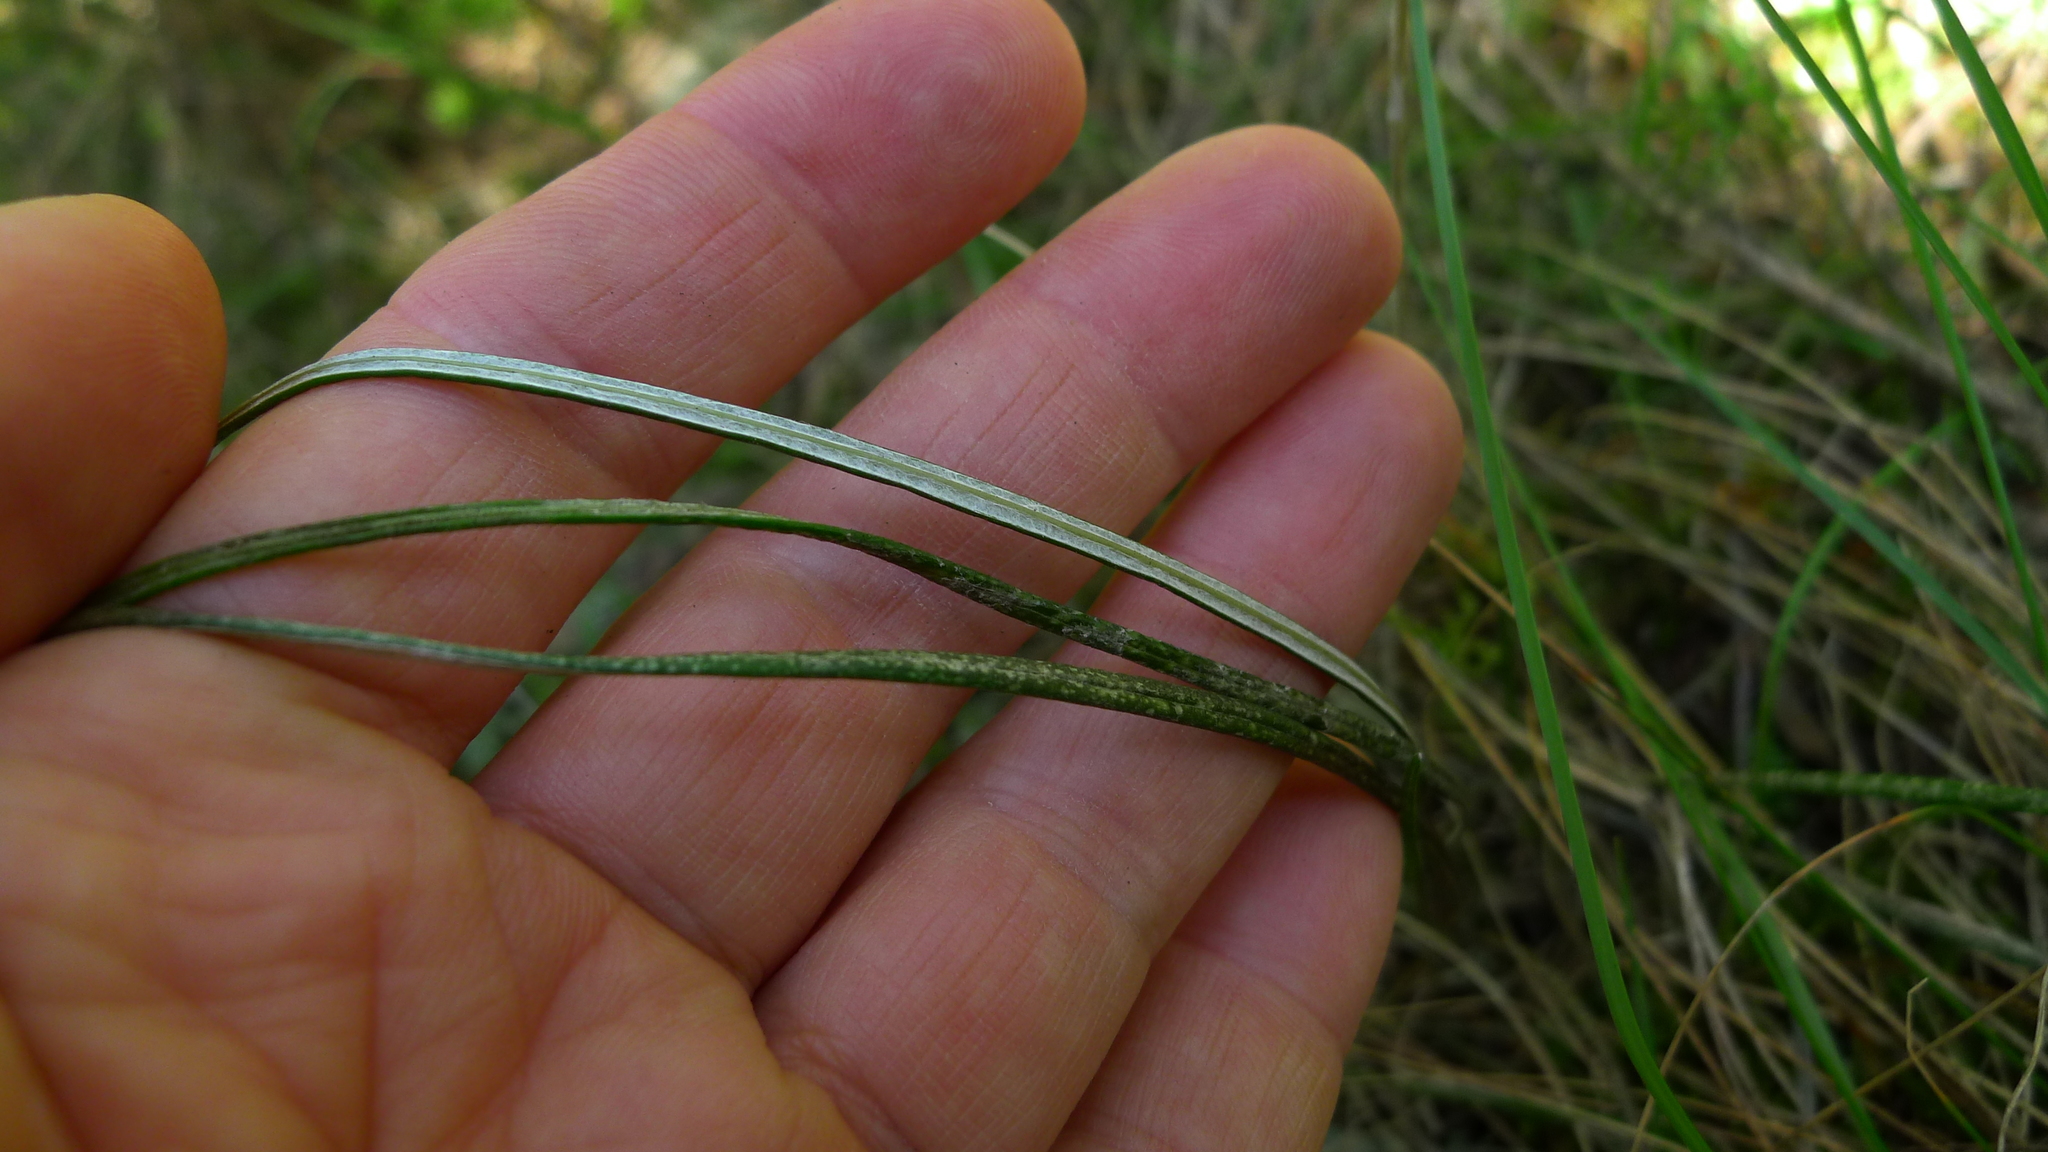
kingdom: Plantae
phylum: Tracheophyta
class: Magnoliopsida
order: Asterales
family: Asteraceae
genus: Celmisia
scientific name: Celmisia gracilenta
